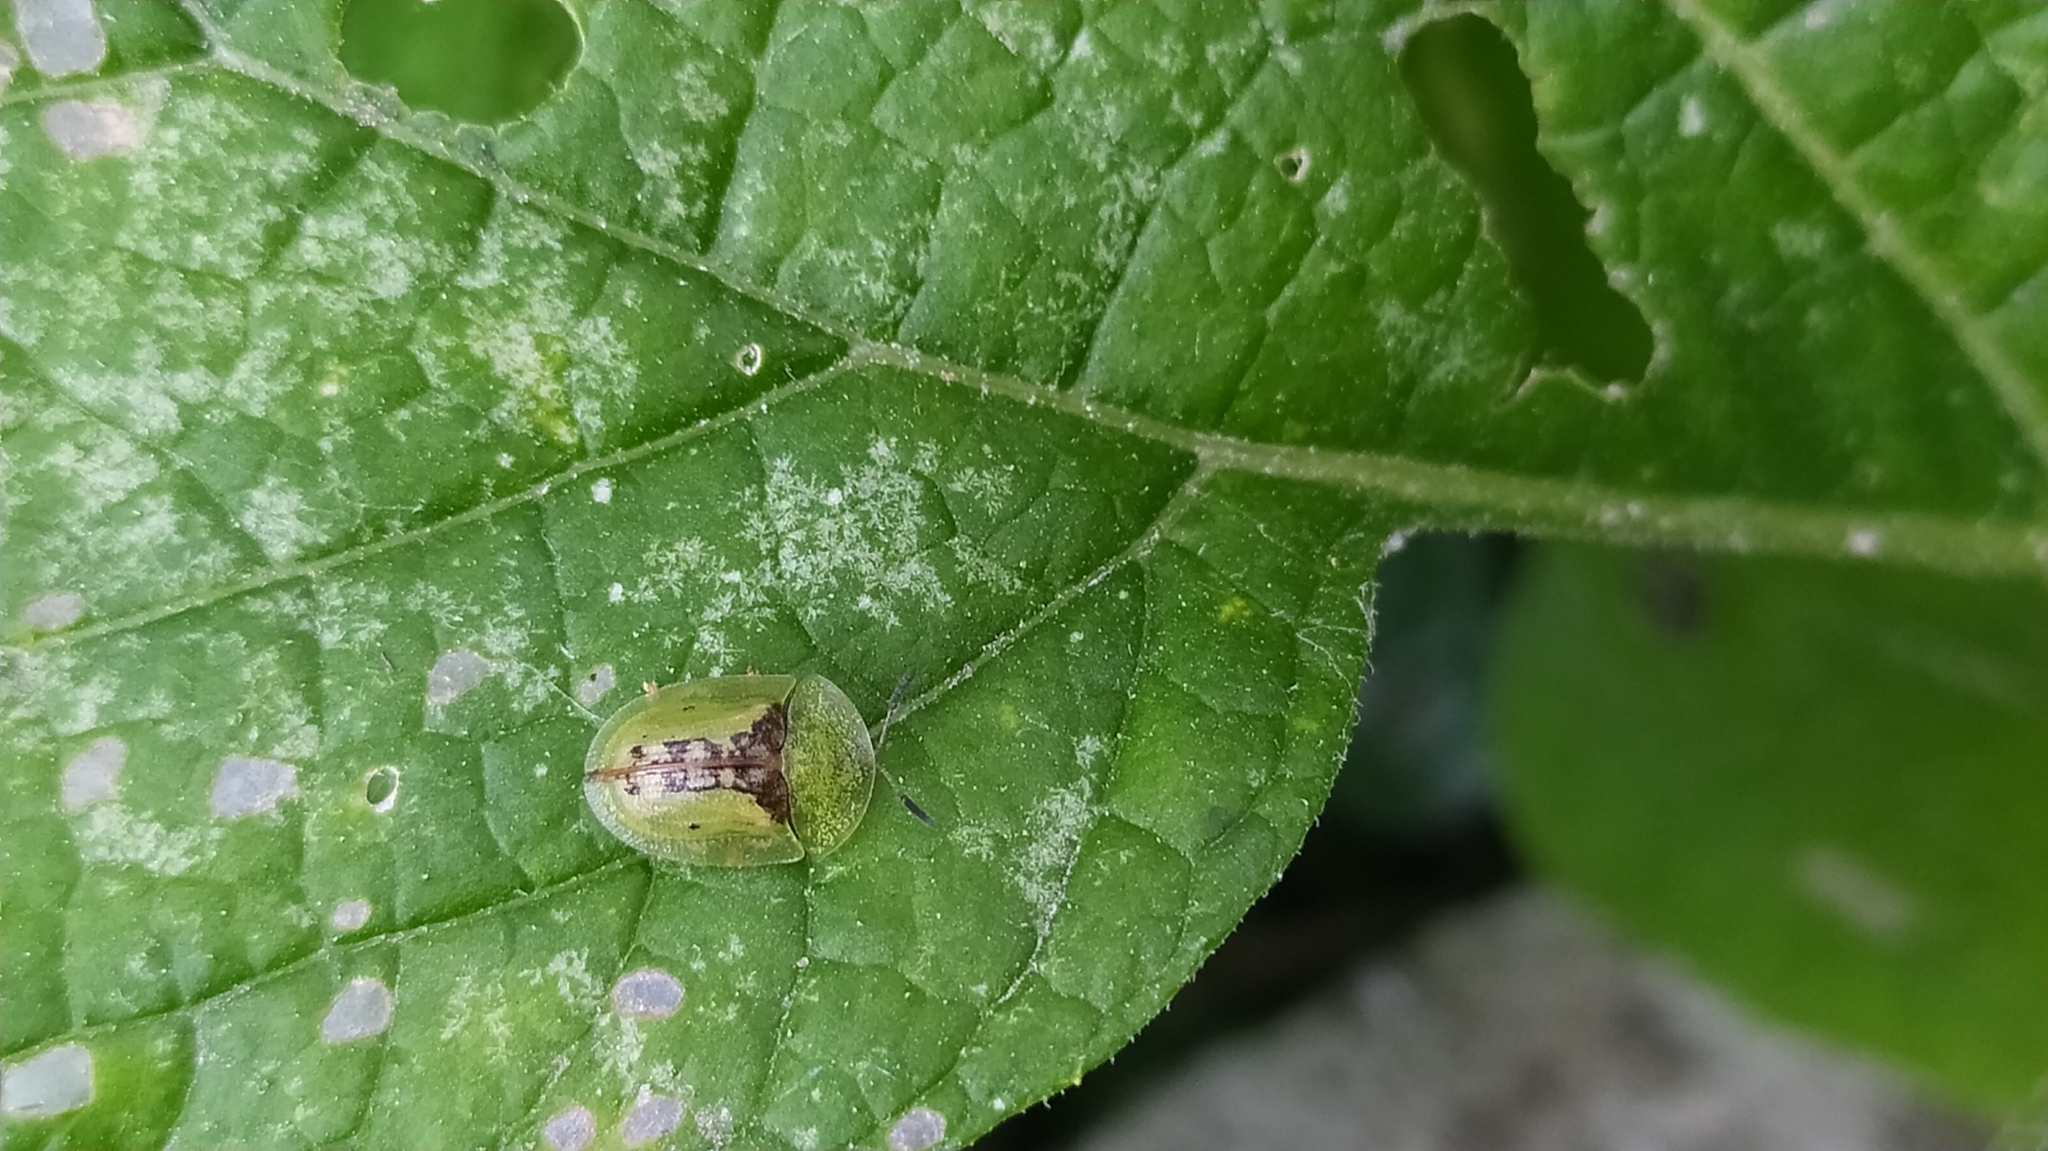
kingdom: Animalia
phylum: Arthropoda
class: Insecta
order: Coleoptera
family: Chrysomelidae
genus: Cassida
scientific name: Cassida vibex
